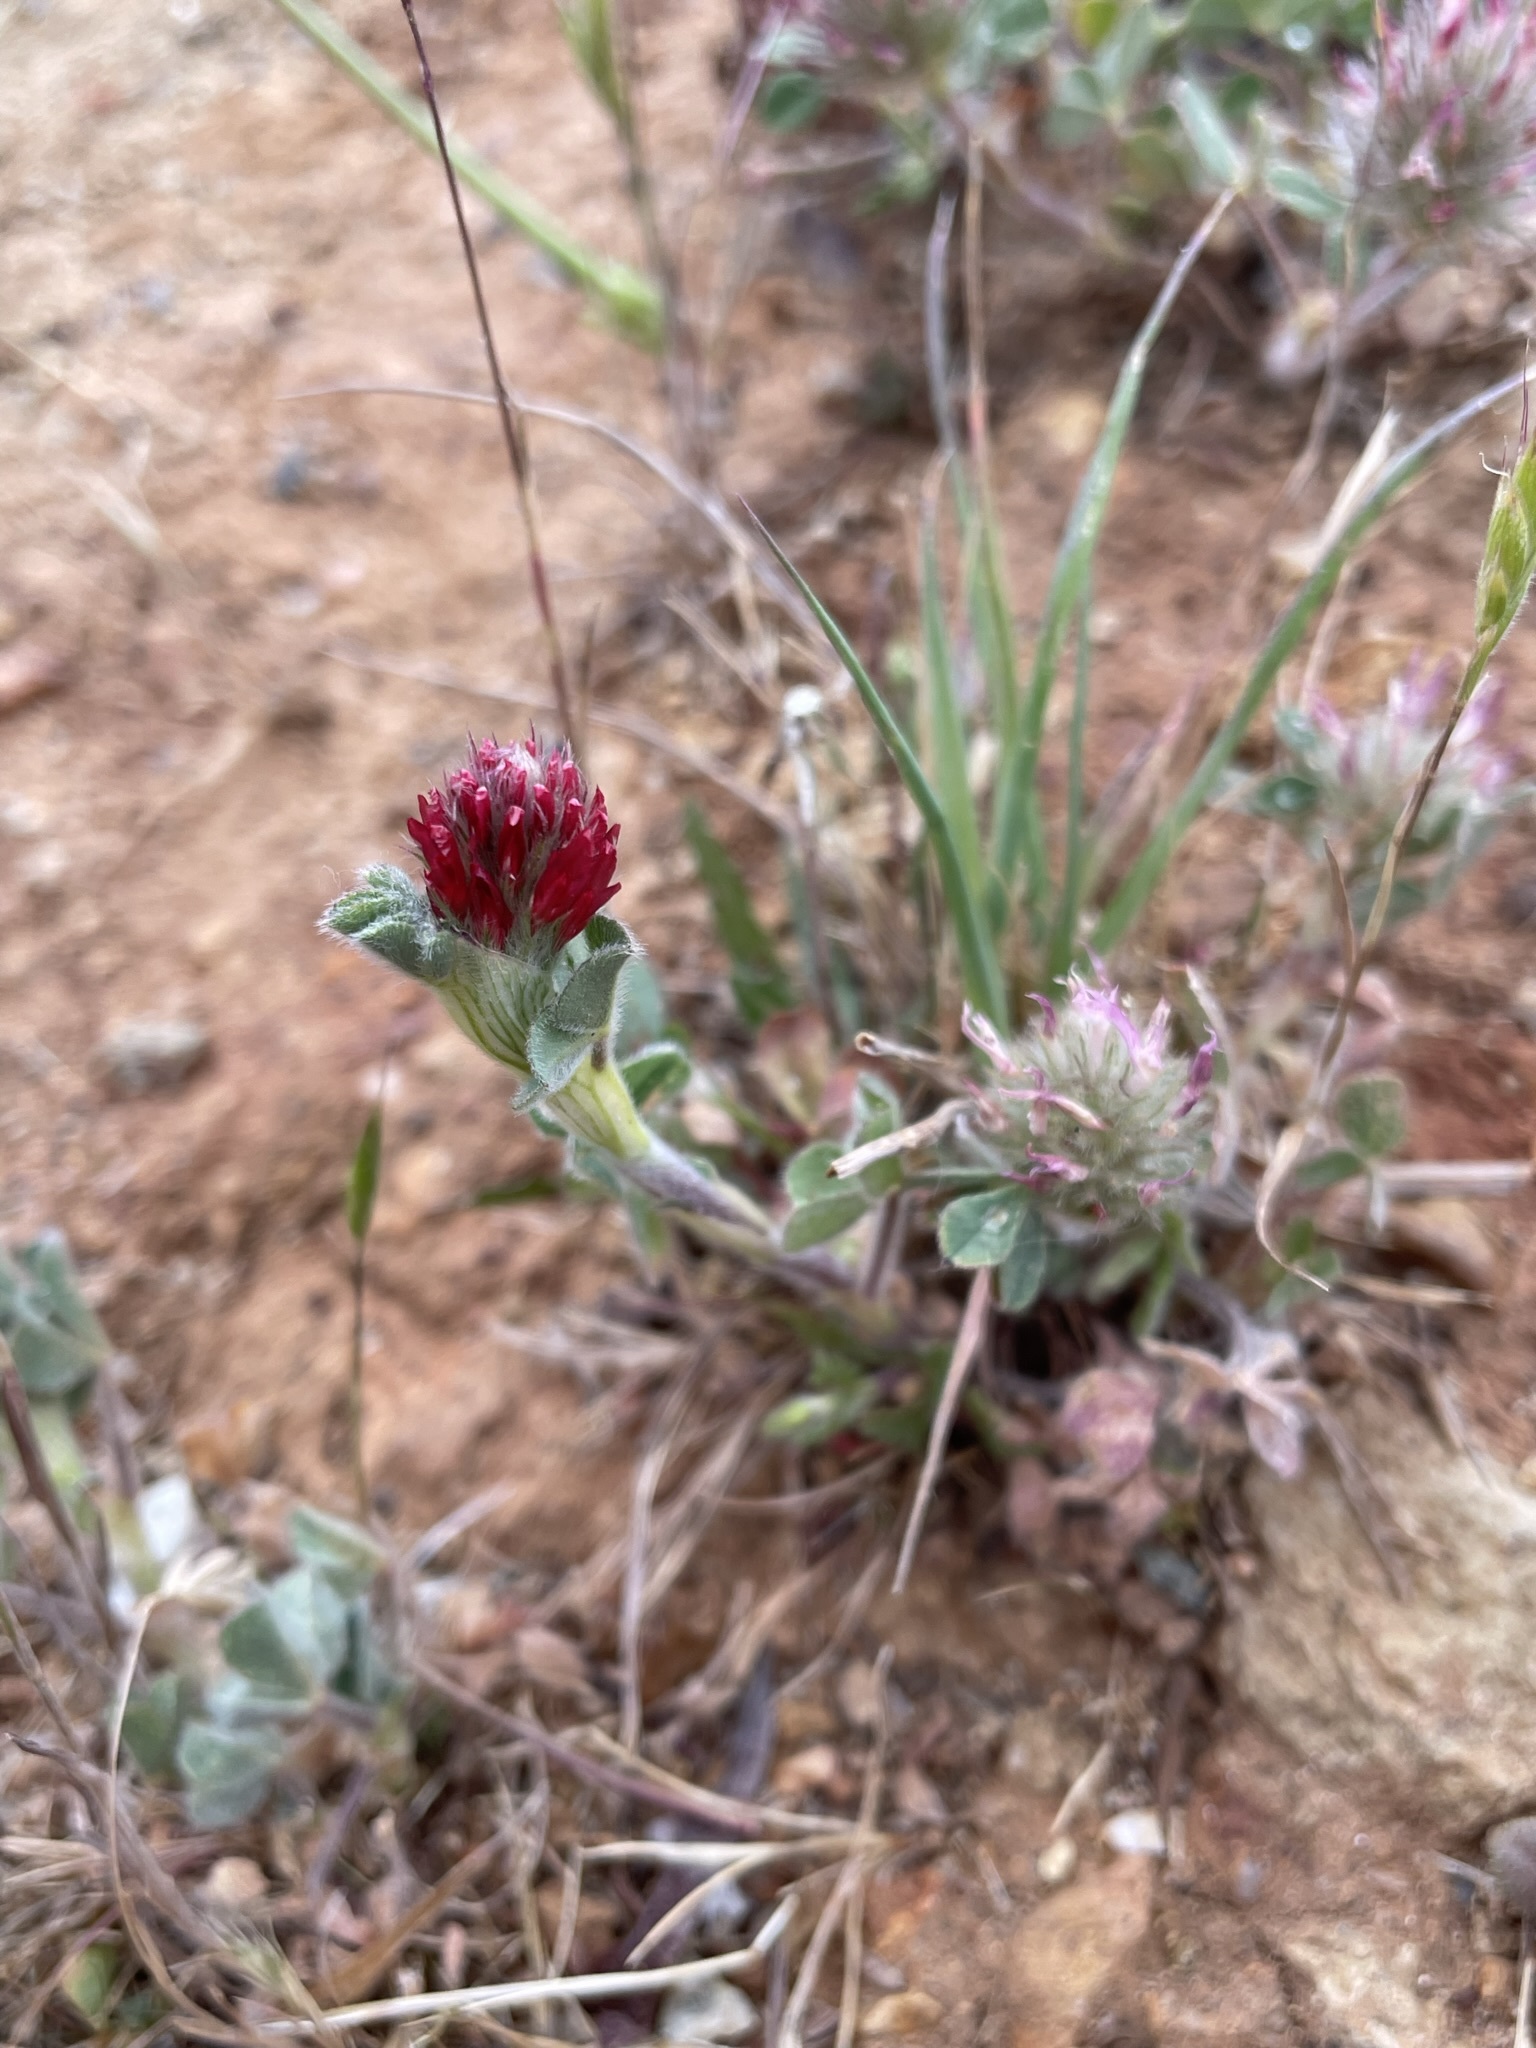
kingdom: Plantae
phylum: Tracheophyta
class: Magnoliopsida
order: Fabales
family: Fabaceae
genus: Trifolium
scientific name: Trifolium incarnatum
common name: Crimson clover
